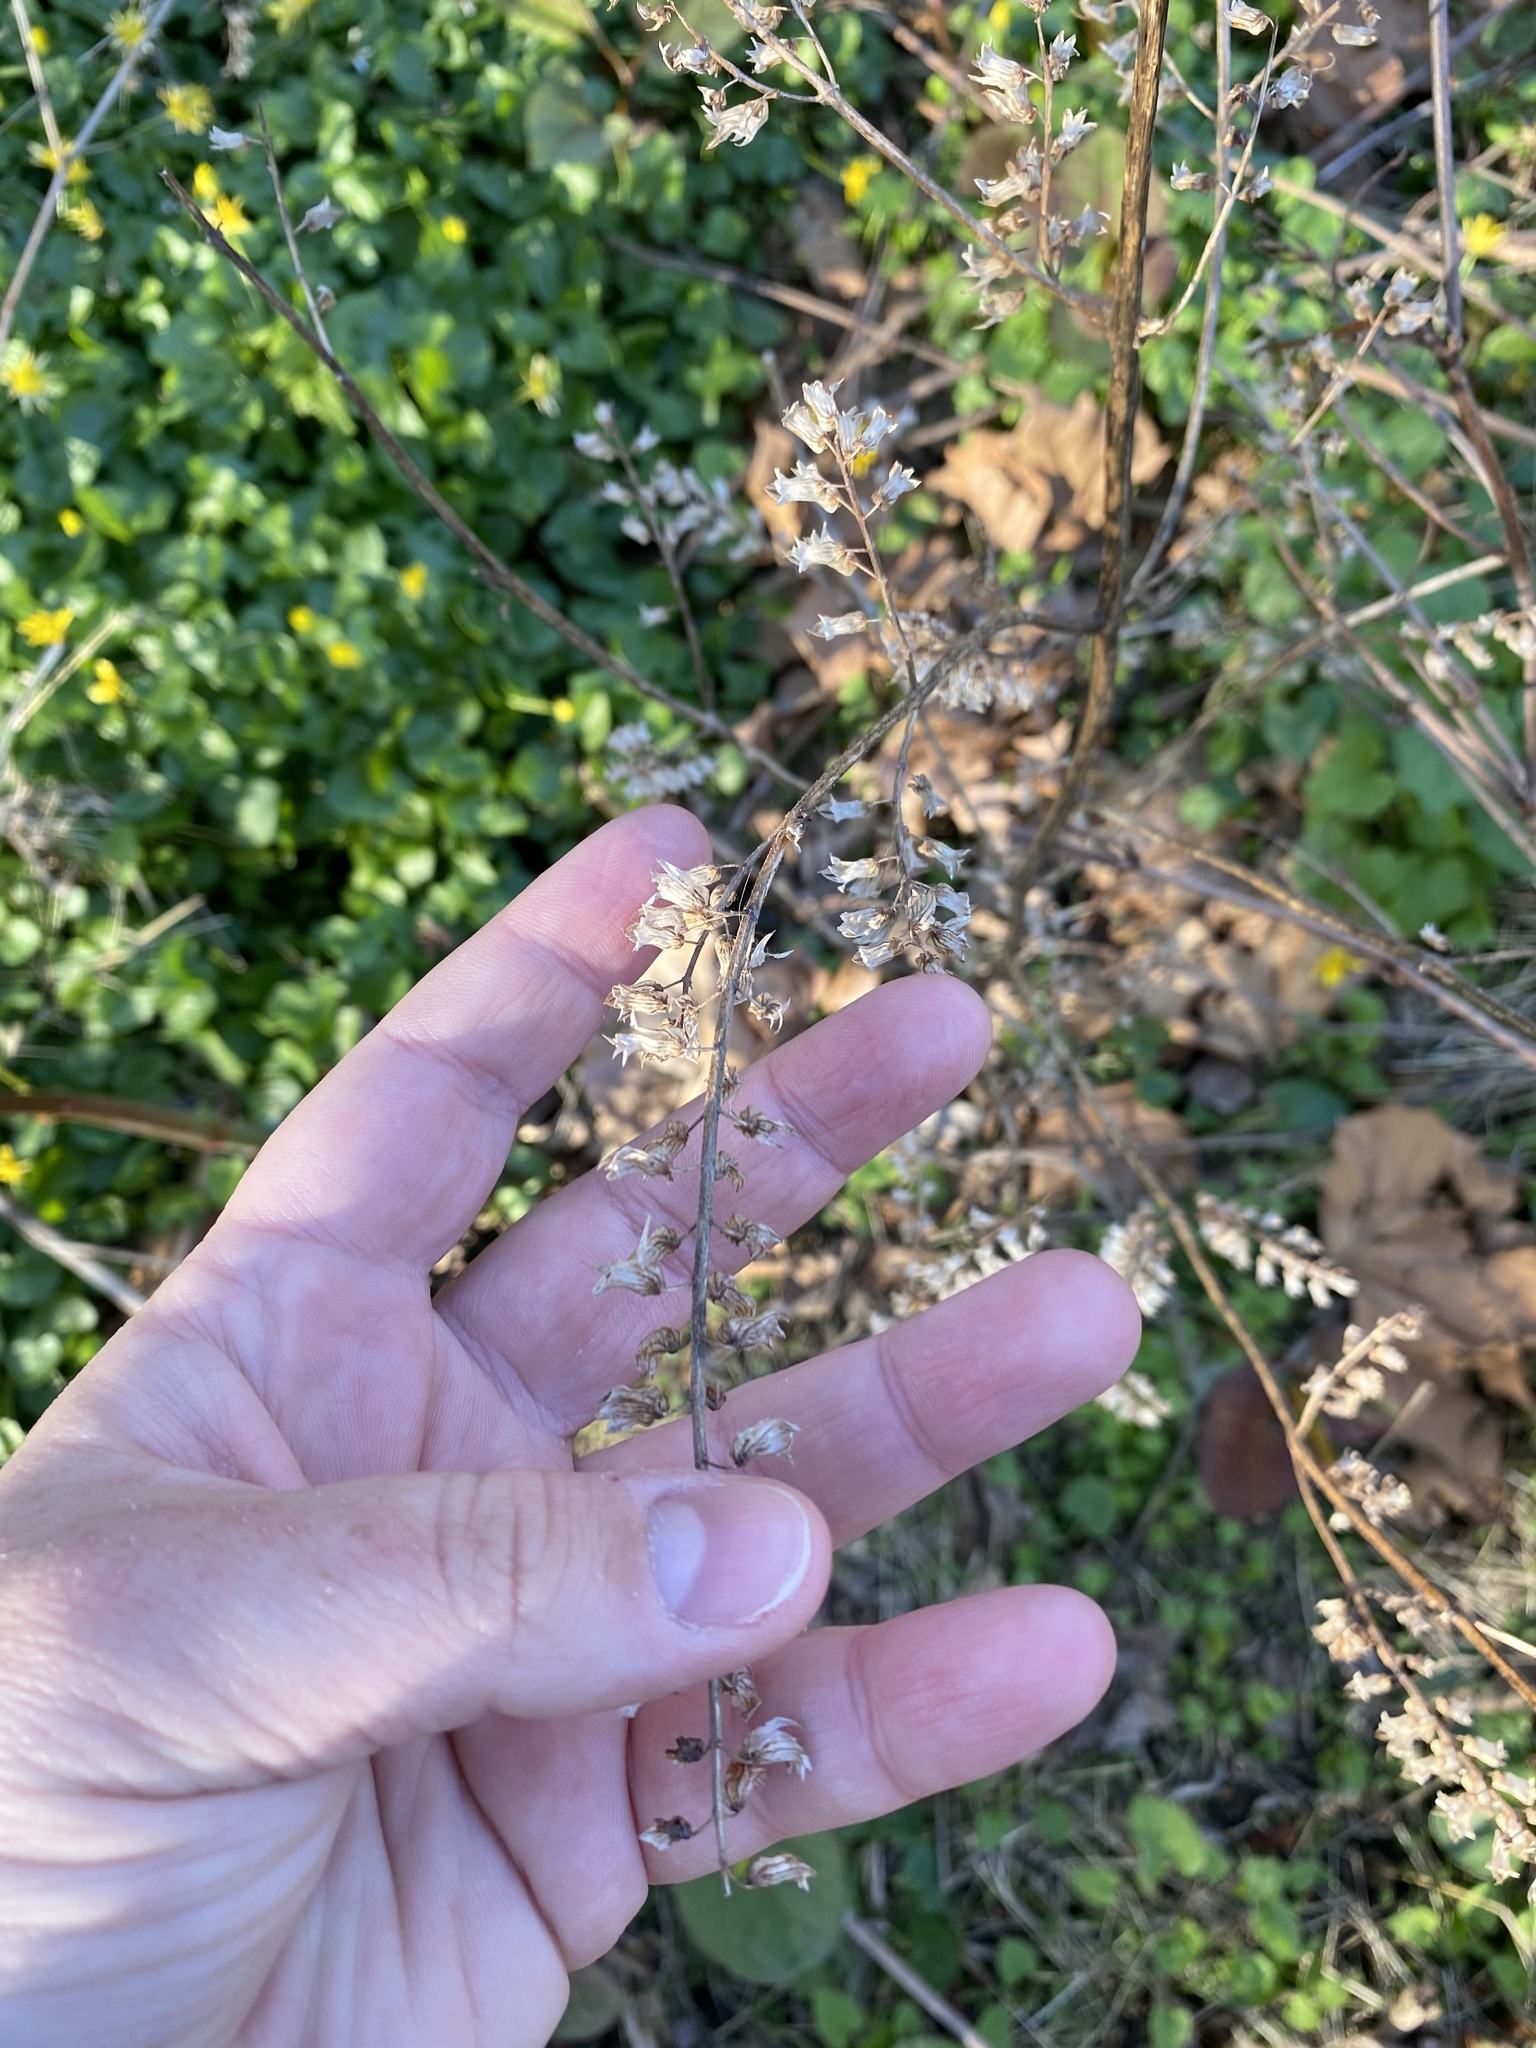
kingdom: Plantae
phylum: Tracheophyta
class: Magnoliopsida
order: Lamiales
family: Lamiaceae
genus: Perilla
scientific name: Perilla frutescens
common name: Perilla
